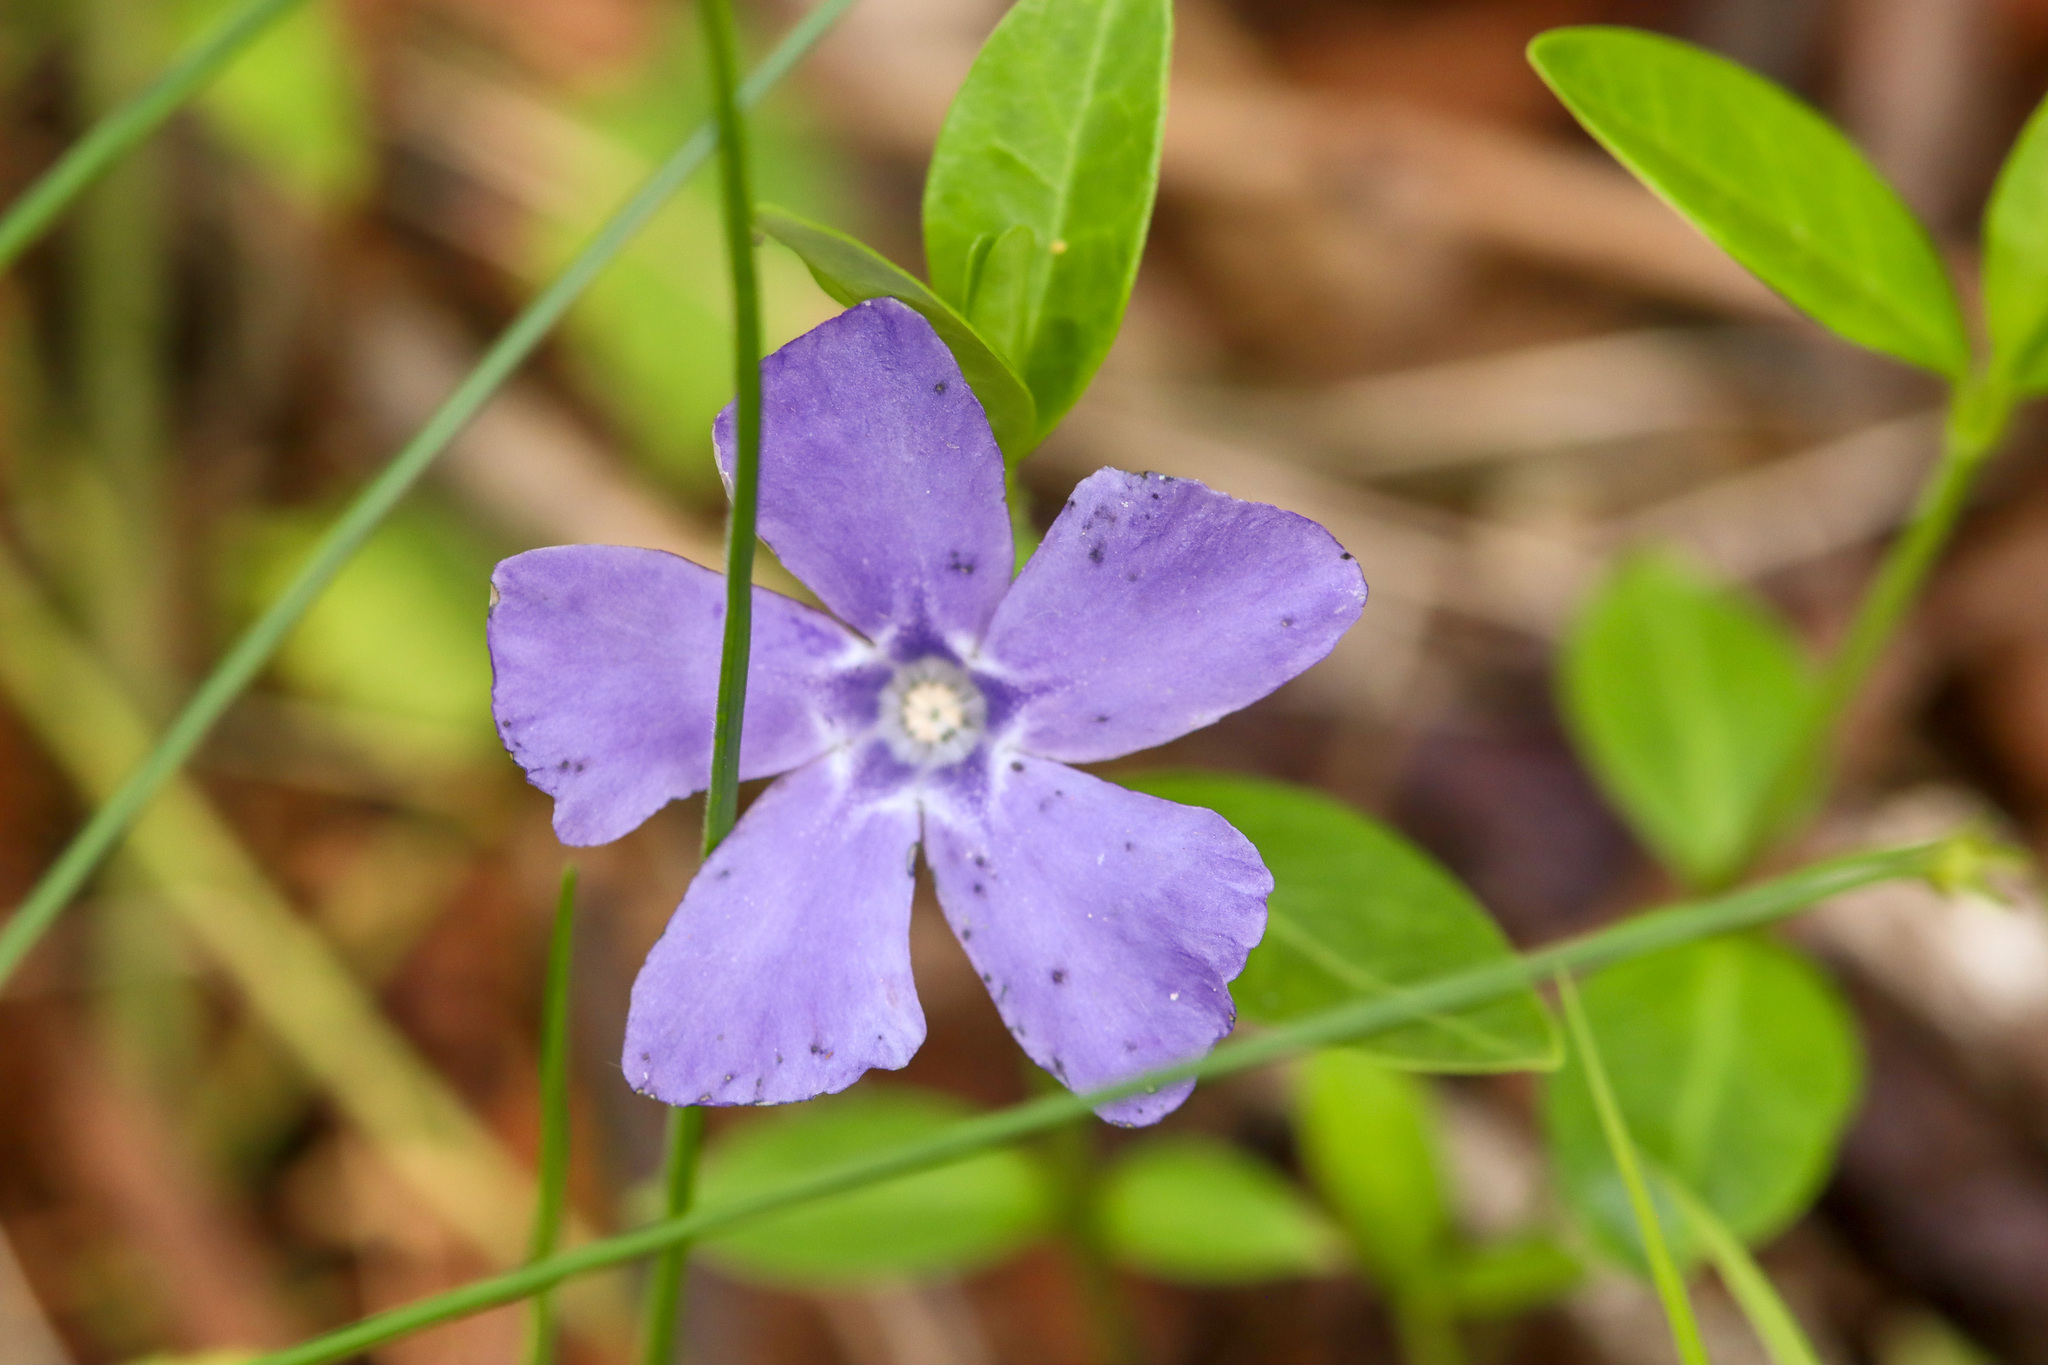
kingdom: Plantae
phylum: Tracheophyta
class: Magnoliopsida
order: Gentianales
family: Apocynaceae
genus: Vinca
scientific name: Vinca minor
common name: Lesser periwinkle
